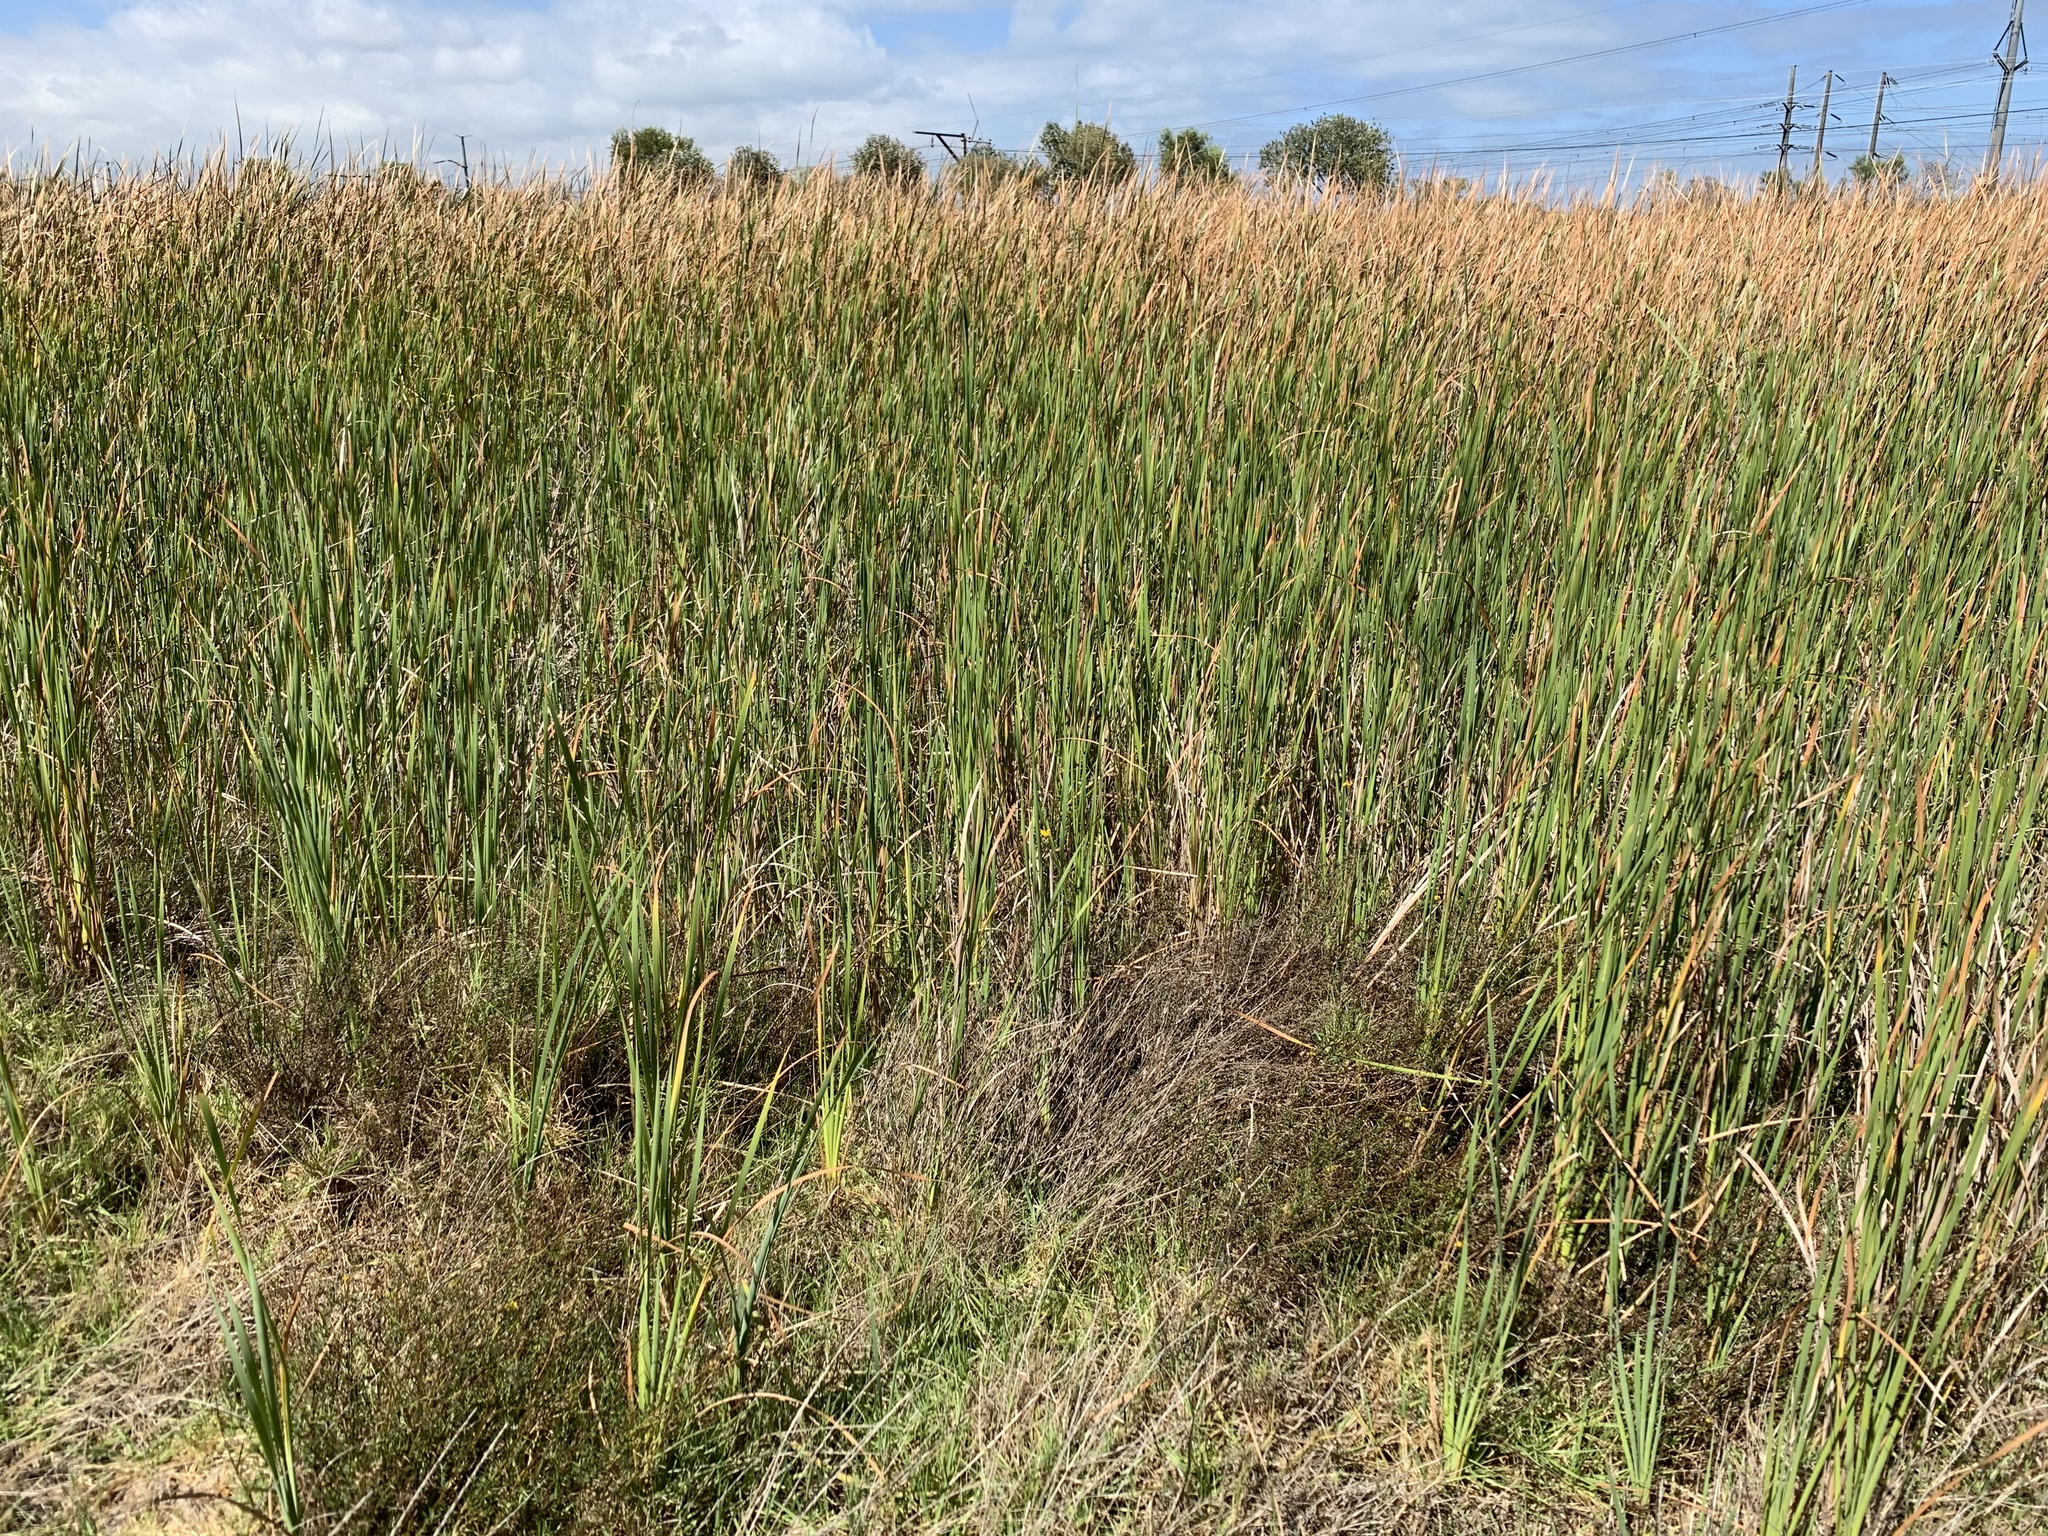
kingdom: Plantae
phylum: Tracheophyta
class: Liliopsida
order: Poales
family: Typhaceae
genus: Typha
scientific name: Typha capensis
